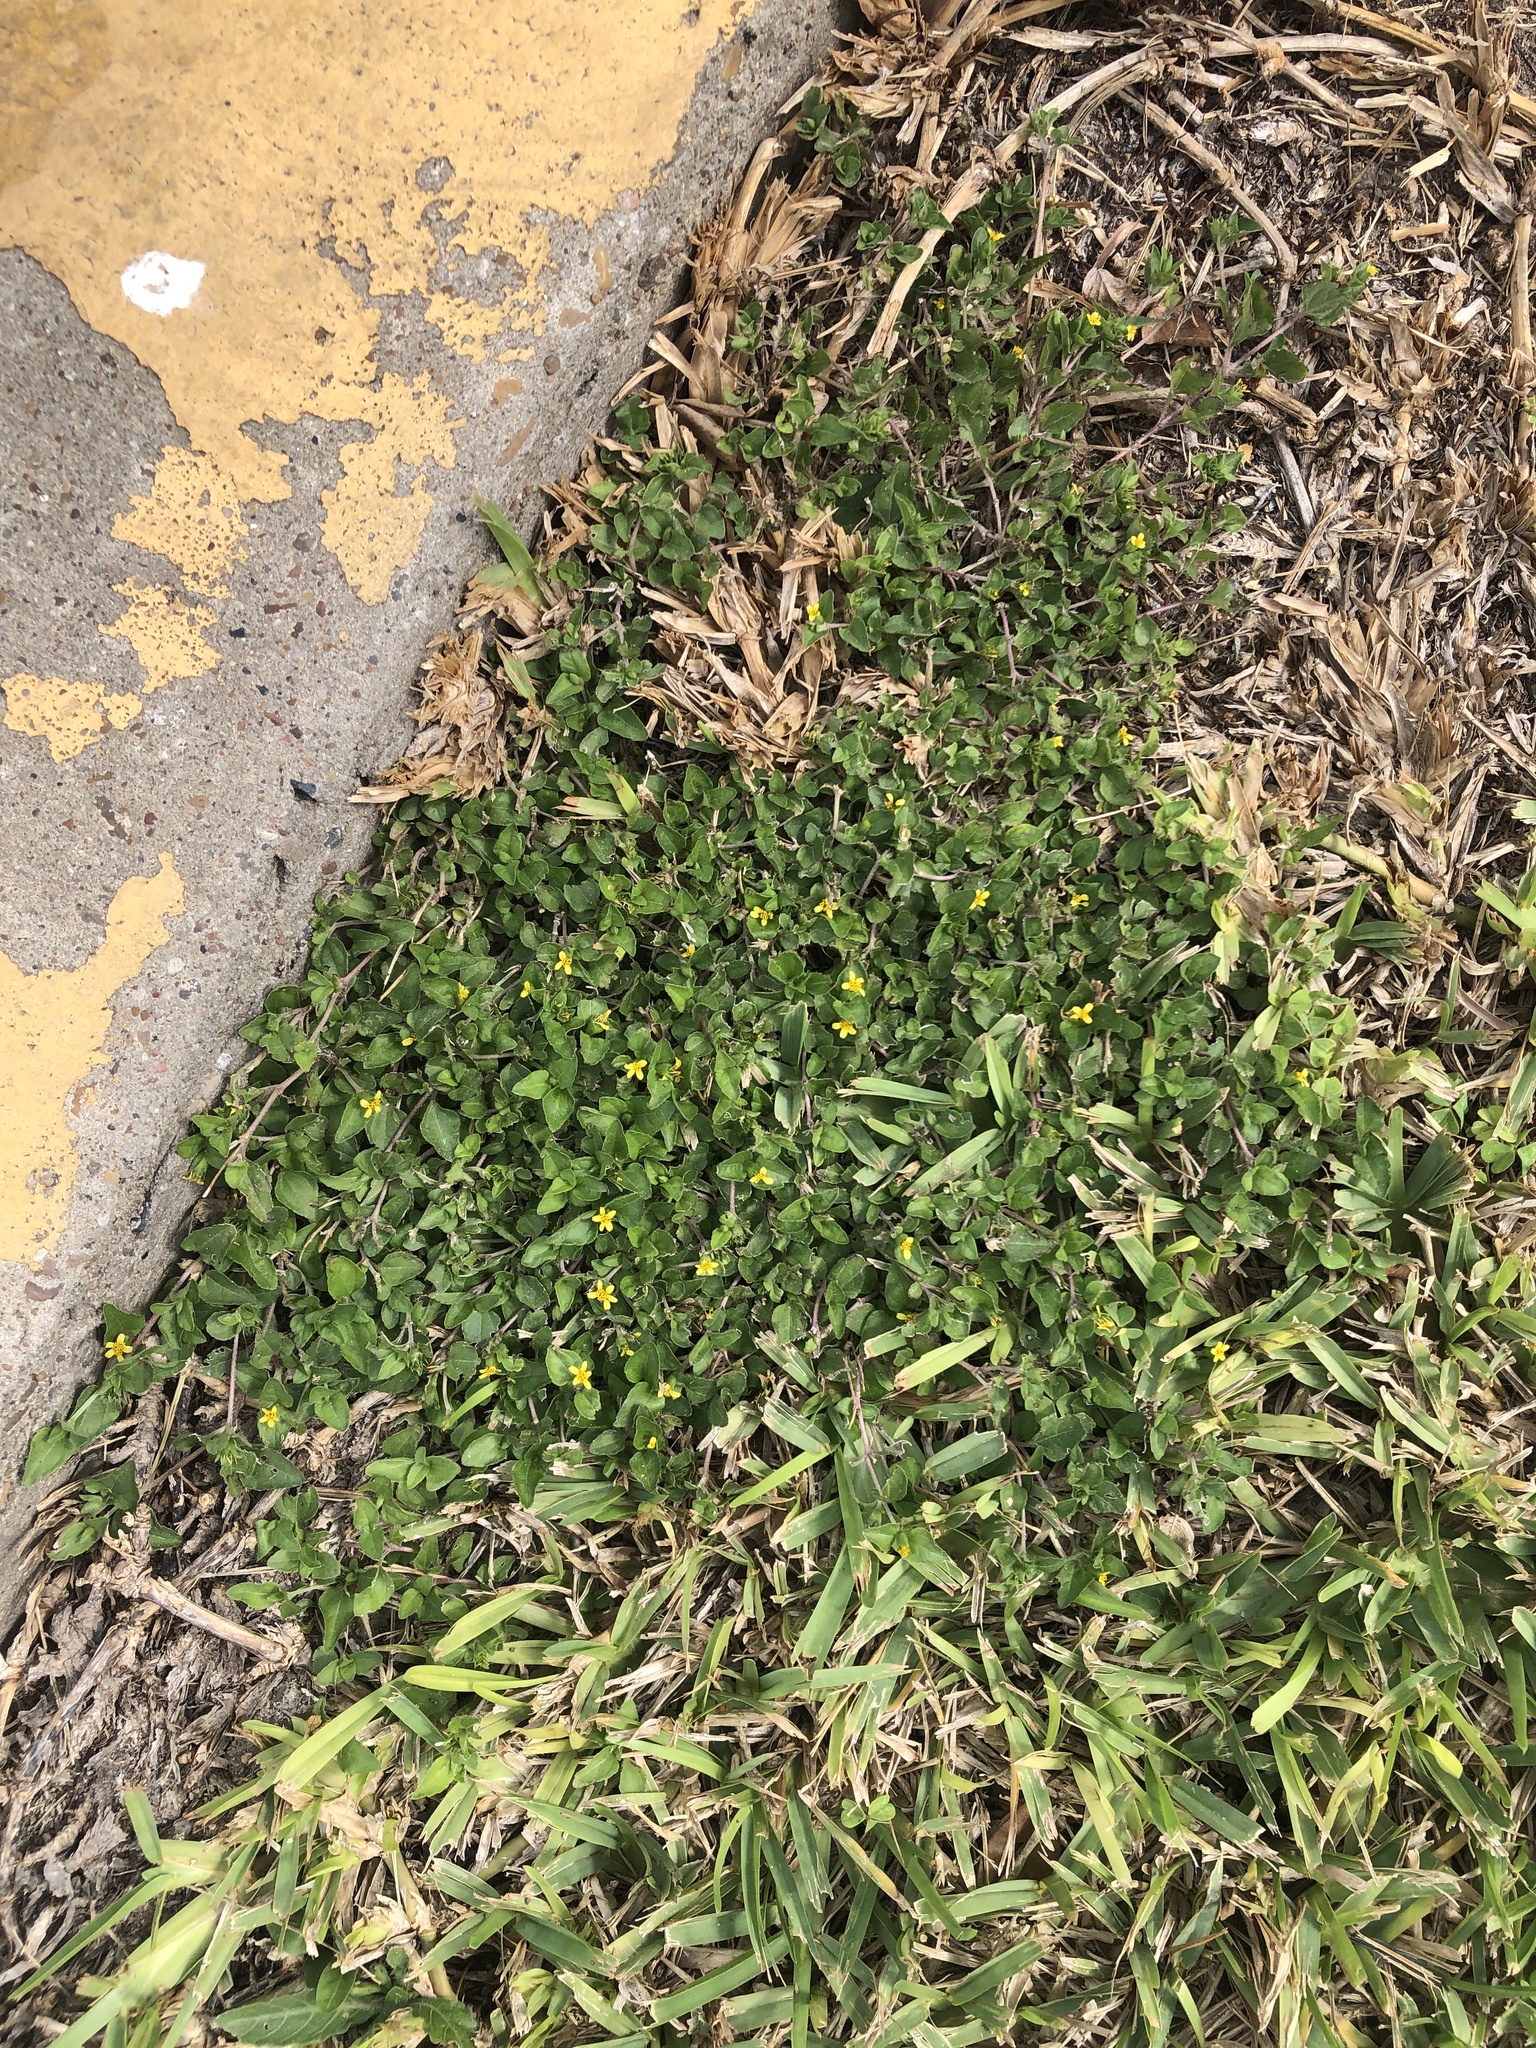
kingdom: Plantae
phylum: Tracheophyta
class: Magnoliopsida
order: Asterales
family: Asteraceae
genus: Calyptocarpus
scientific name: Calyptocarpus vialis
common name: Straggler daisy
